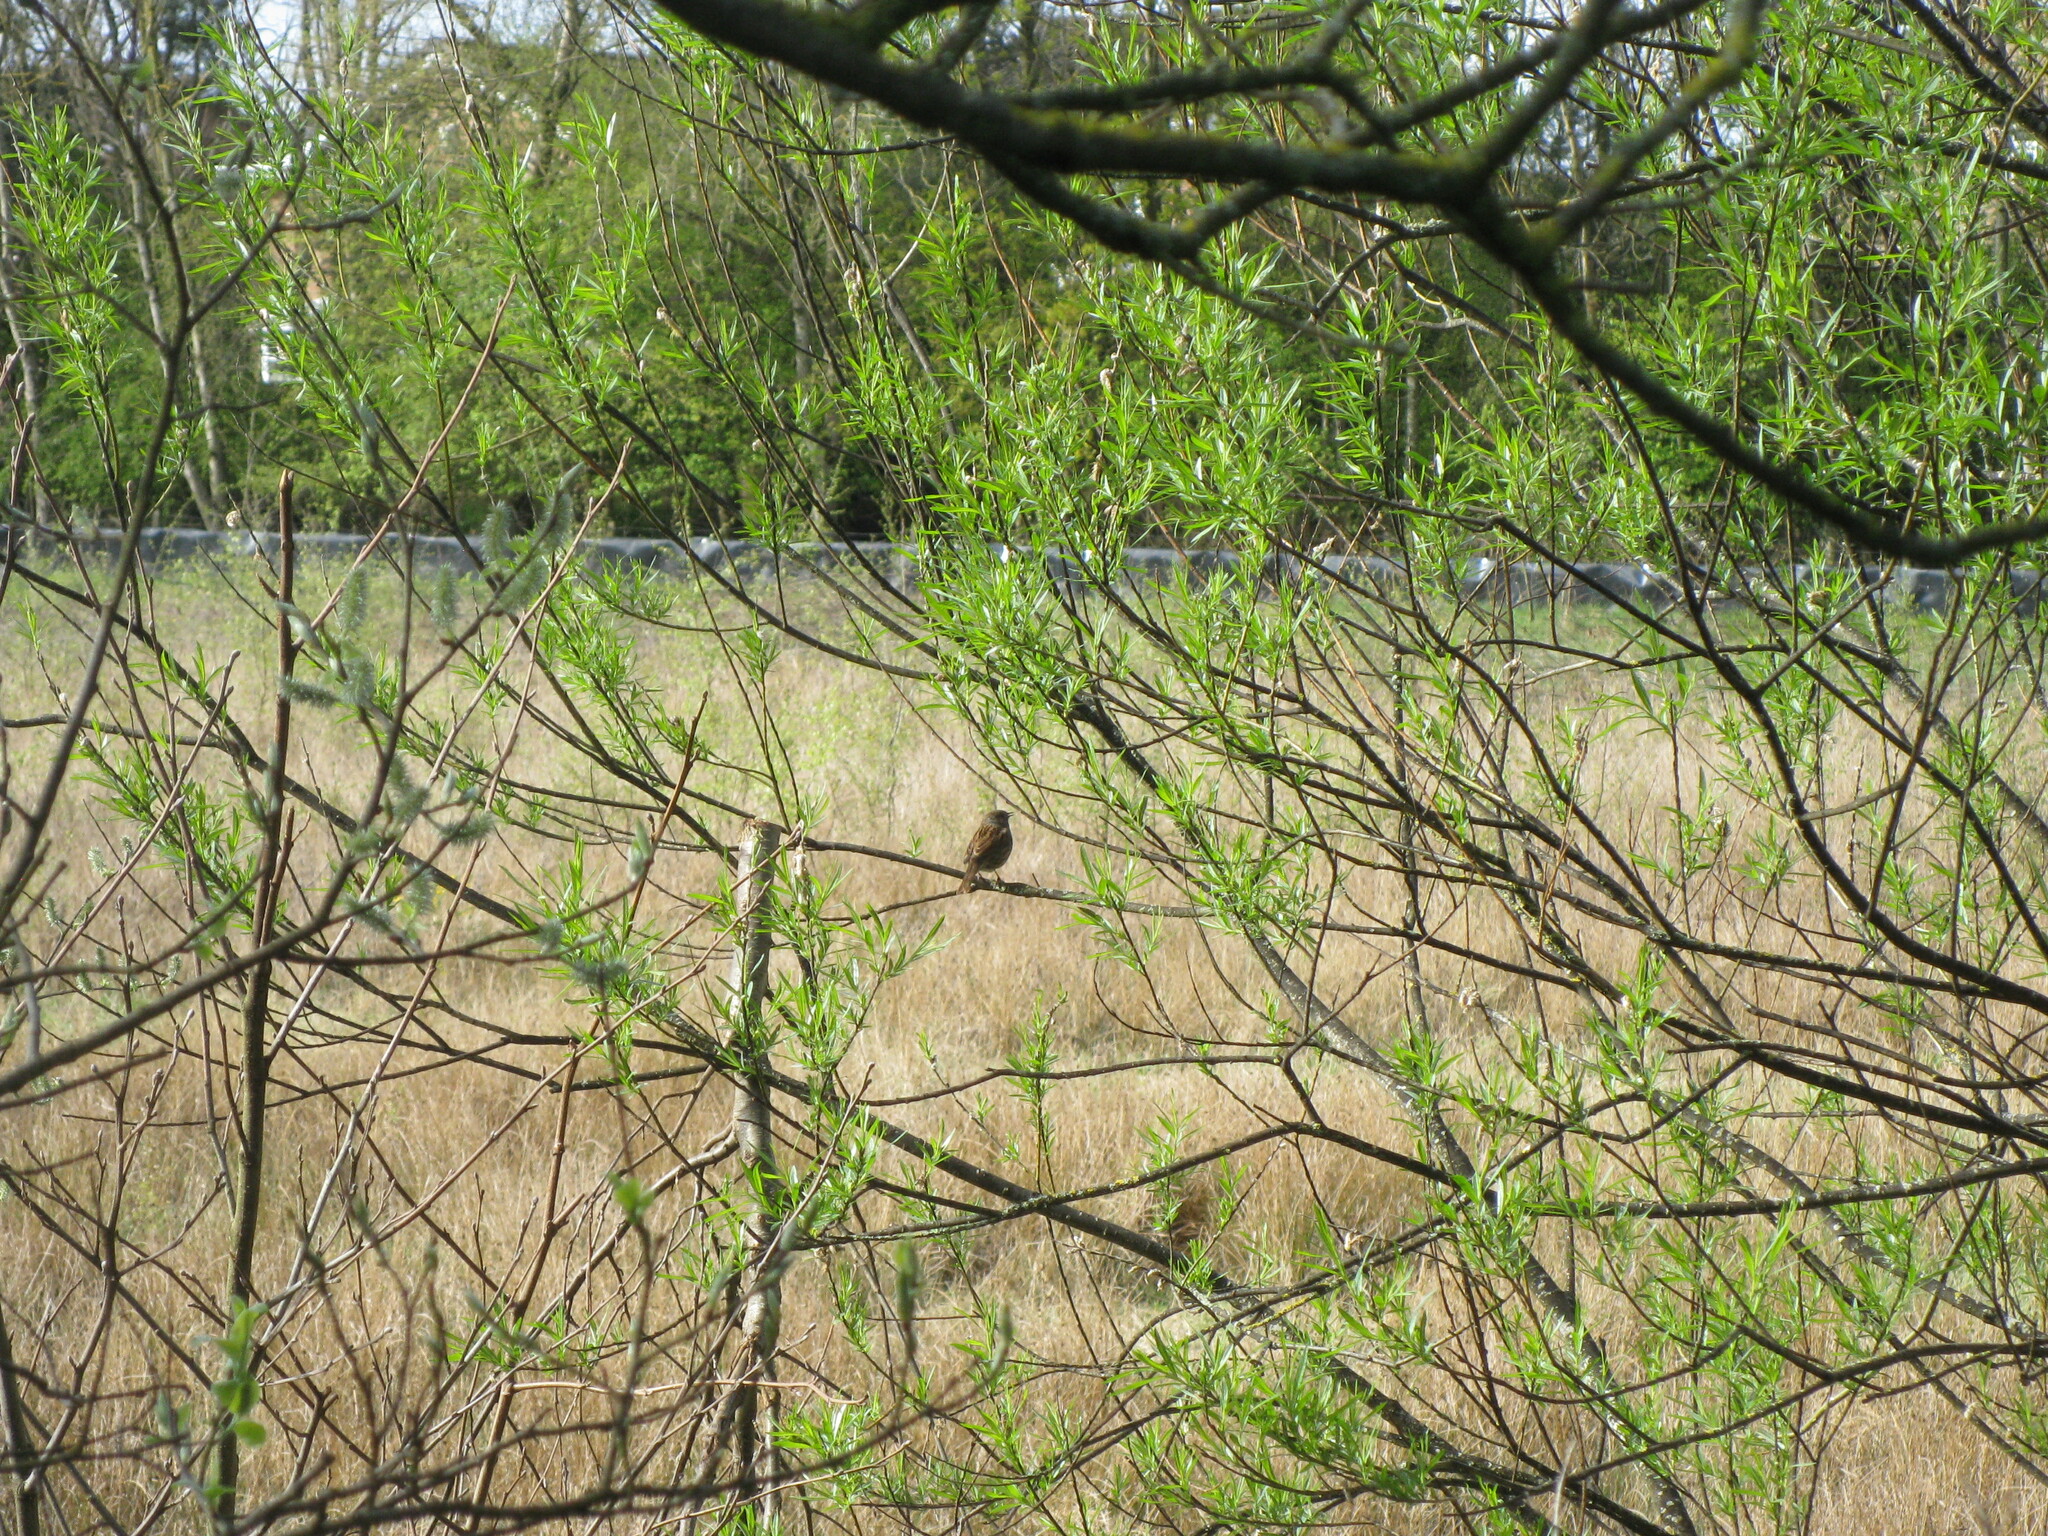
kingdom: Animalia
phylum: Chordata
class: Aves
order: Passeriformes
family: Prunellidae
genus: Prunella
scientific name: Prunella modularis
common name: Dunnock
